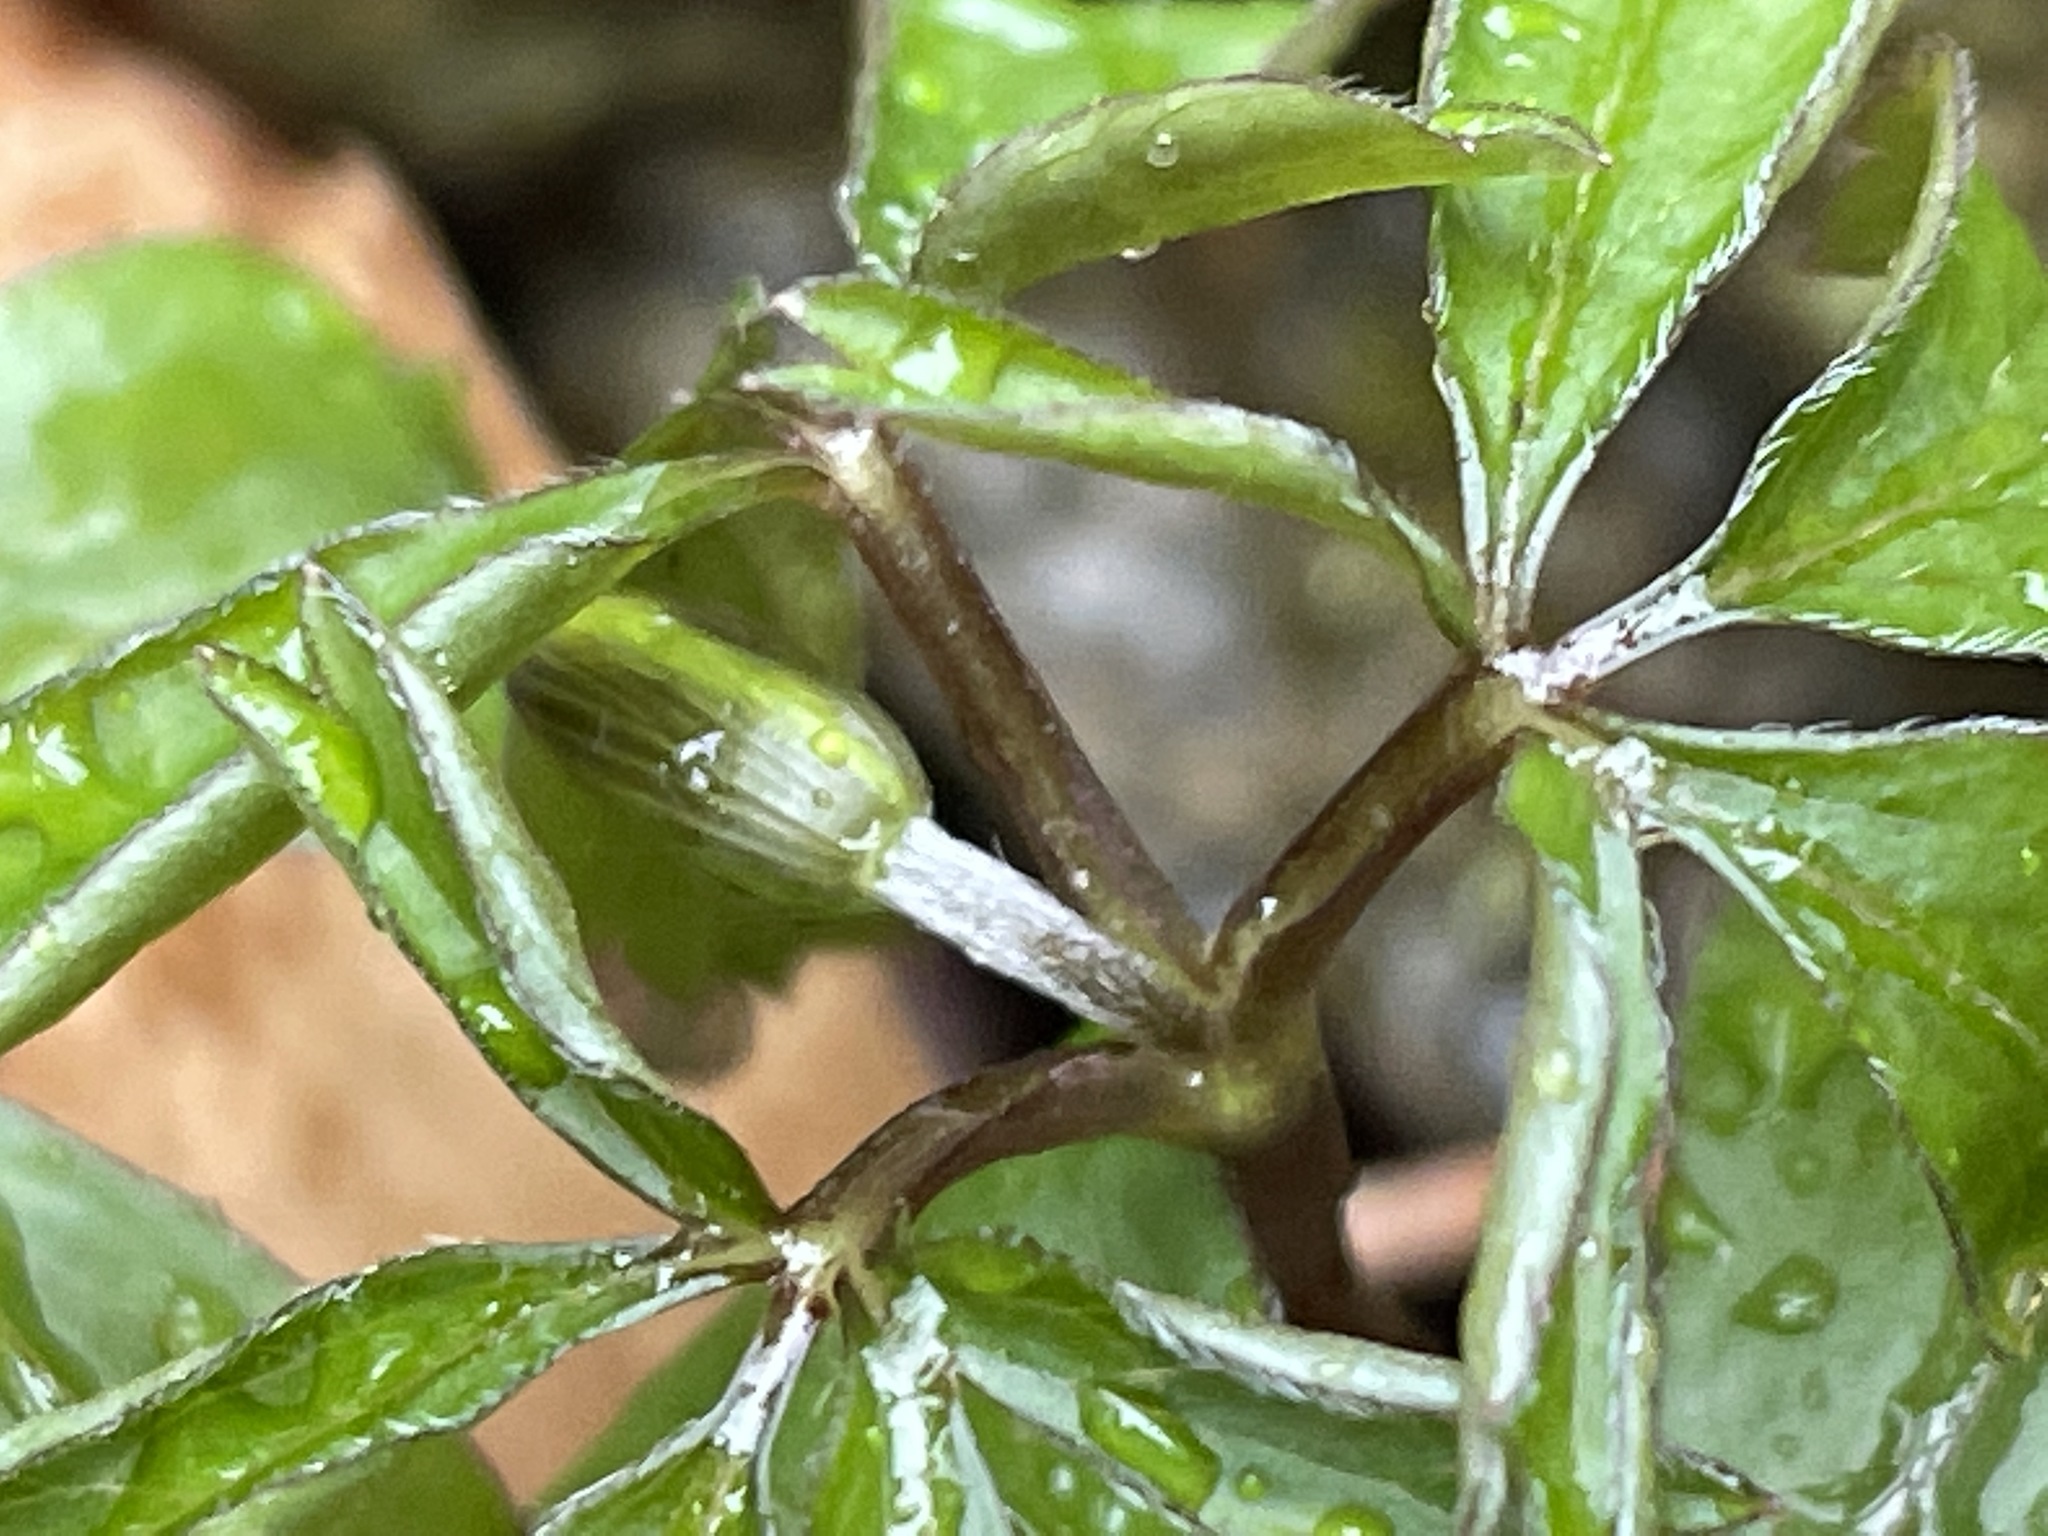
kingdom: Plantae
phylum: Tracheophyta
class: Magnoliopsida
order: Ranunculales
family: Ranunculaceae
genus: Anemone
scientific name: Anemone quinquefolia
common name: Wood anemone
